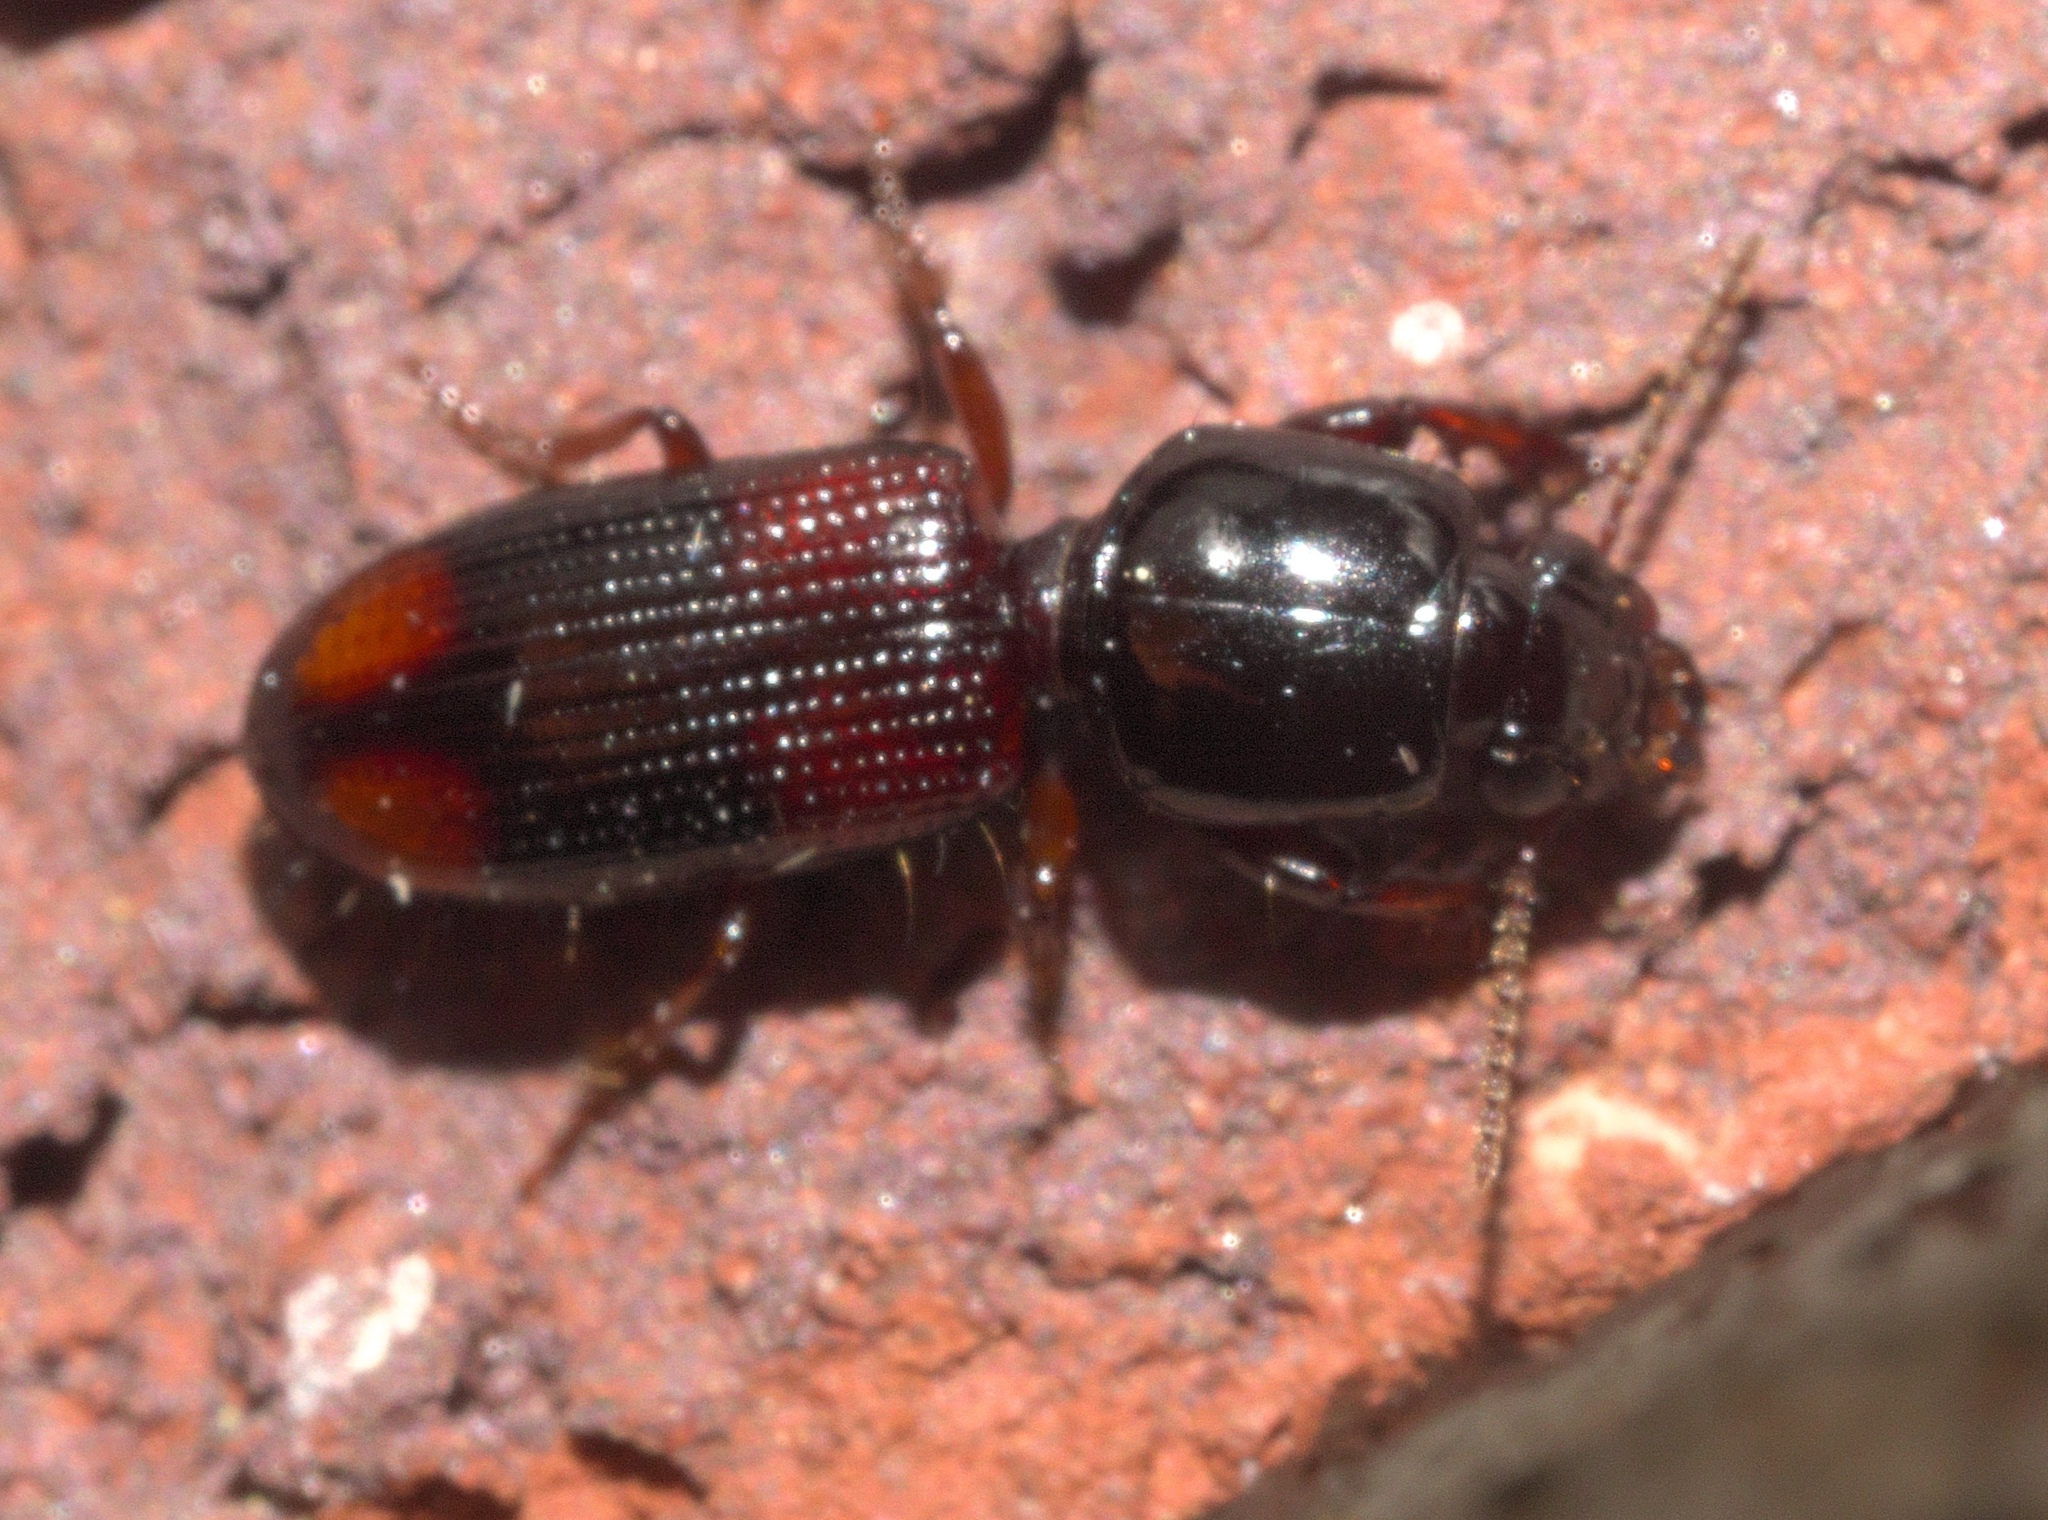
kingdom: Animalia
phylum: Arthropoda
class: Insecta
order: Coleoptera
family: Carabidae
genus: Clivina
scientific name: Clivina bipustulata
